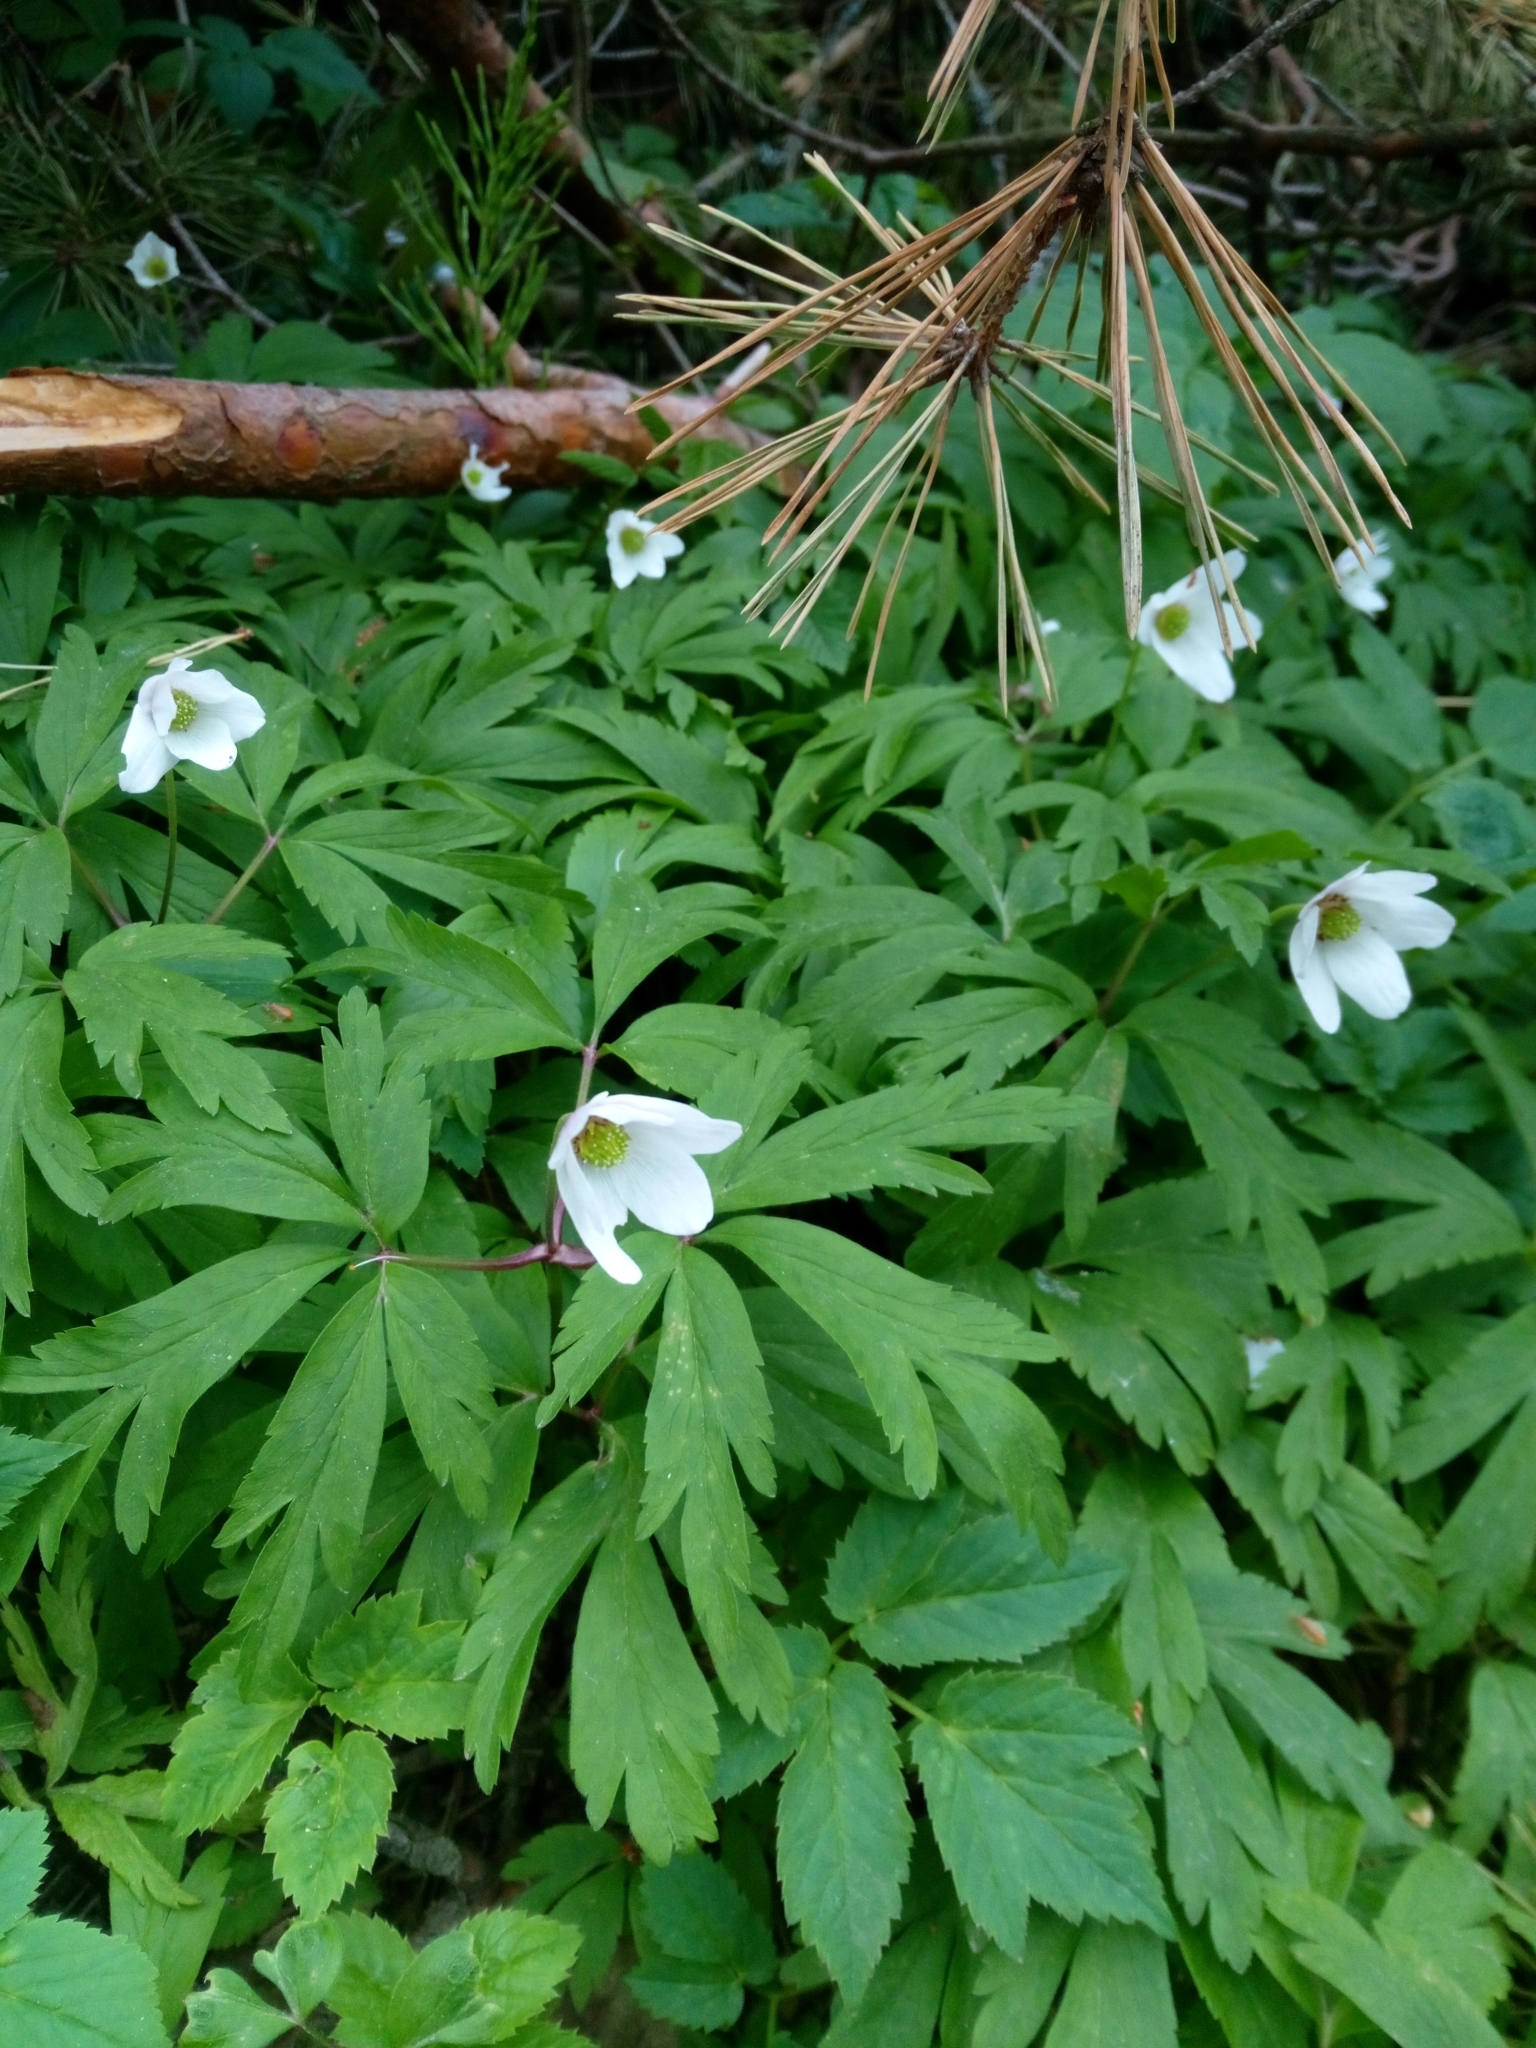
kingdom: Plantae
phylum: Tracheophyta
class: Magnoliopsida
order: Ranunculales
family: Ranunculaceae
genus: Anemone
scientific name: Anemone nemorosa
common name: Wood anemone
